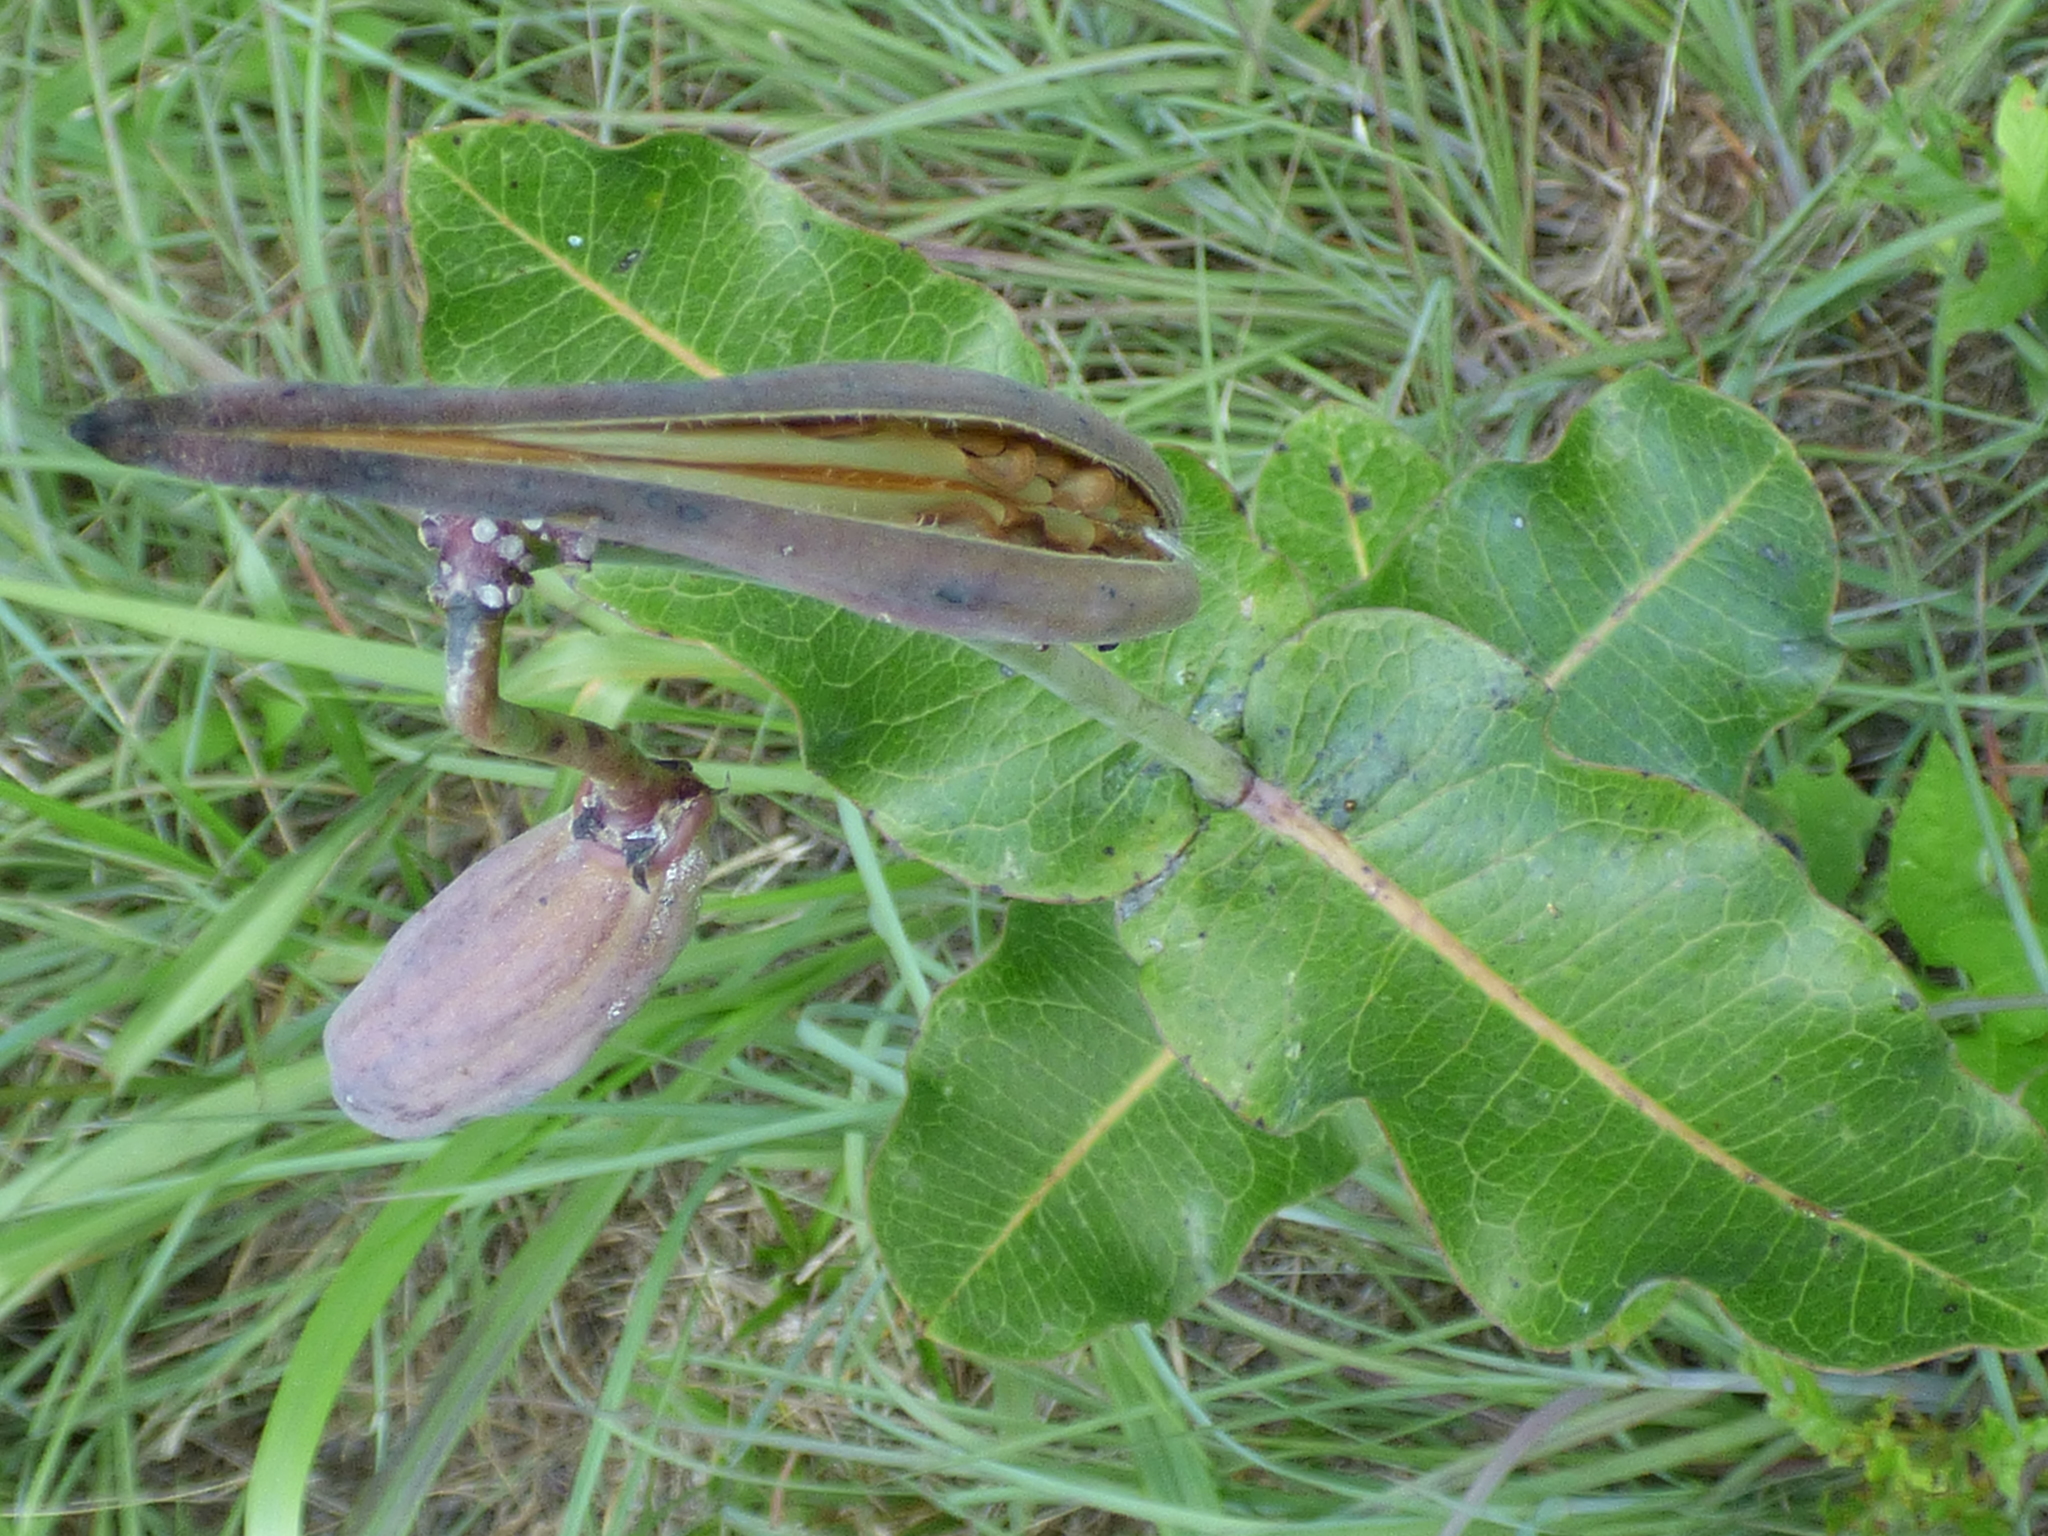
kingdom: Plantae
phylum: Tracheophyta
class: Magnoliopsida
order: Gentianales
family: Apocynaceae
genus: Asclepias
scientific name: Asclepias amplexicaulis
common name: Blunt-leaf milkweed
